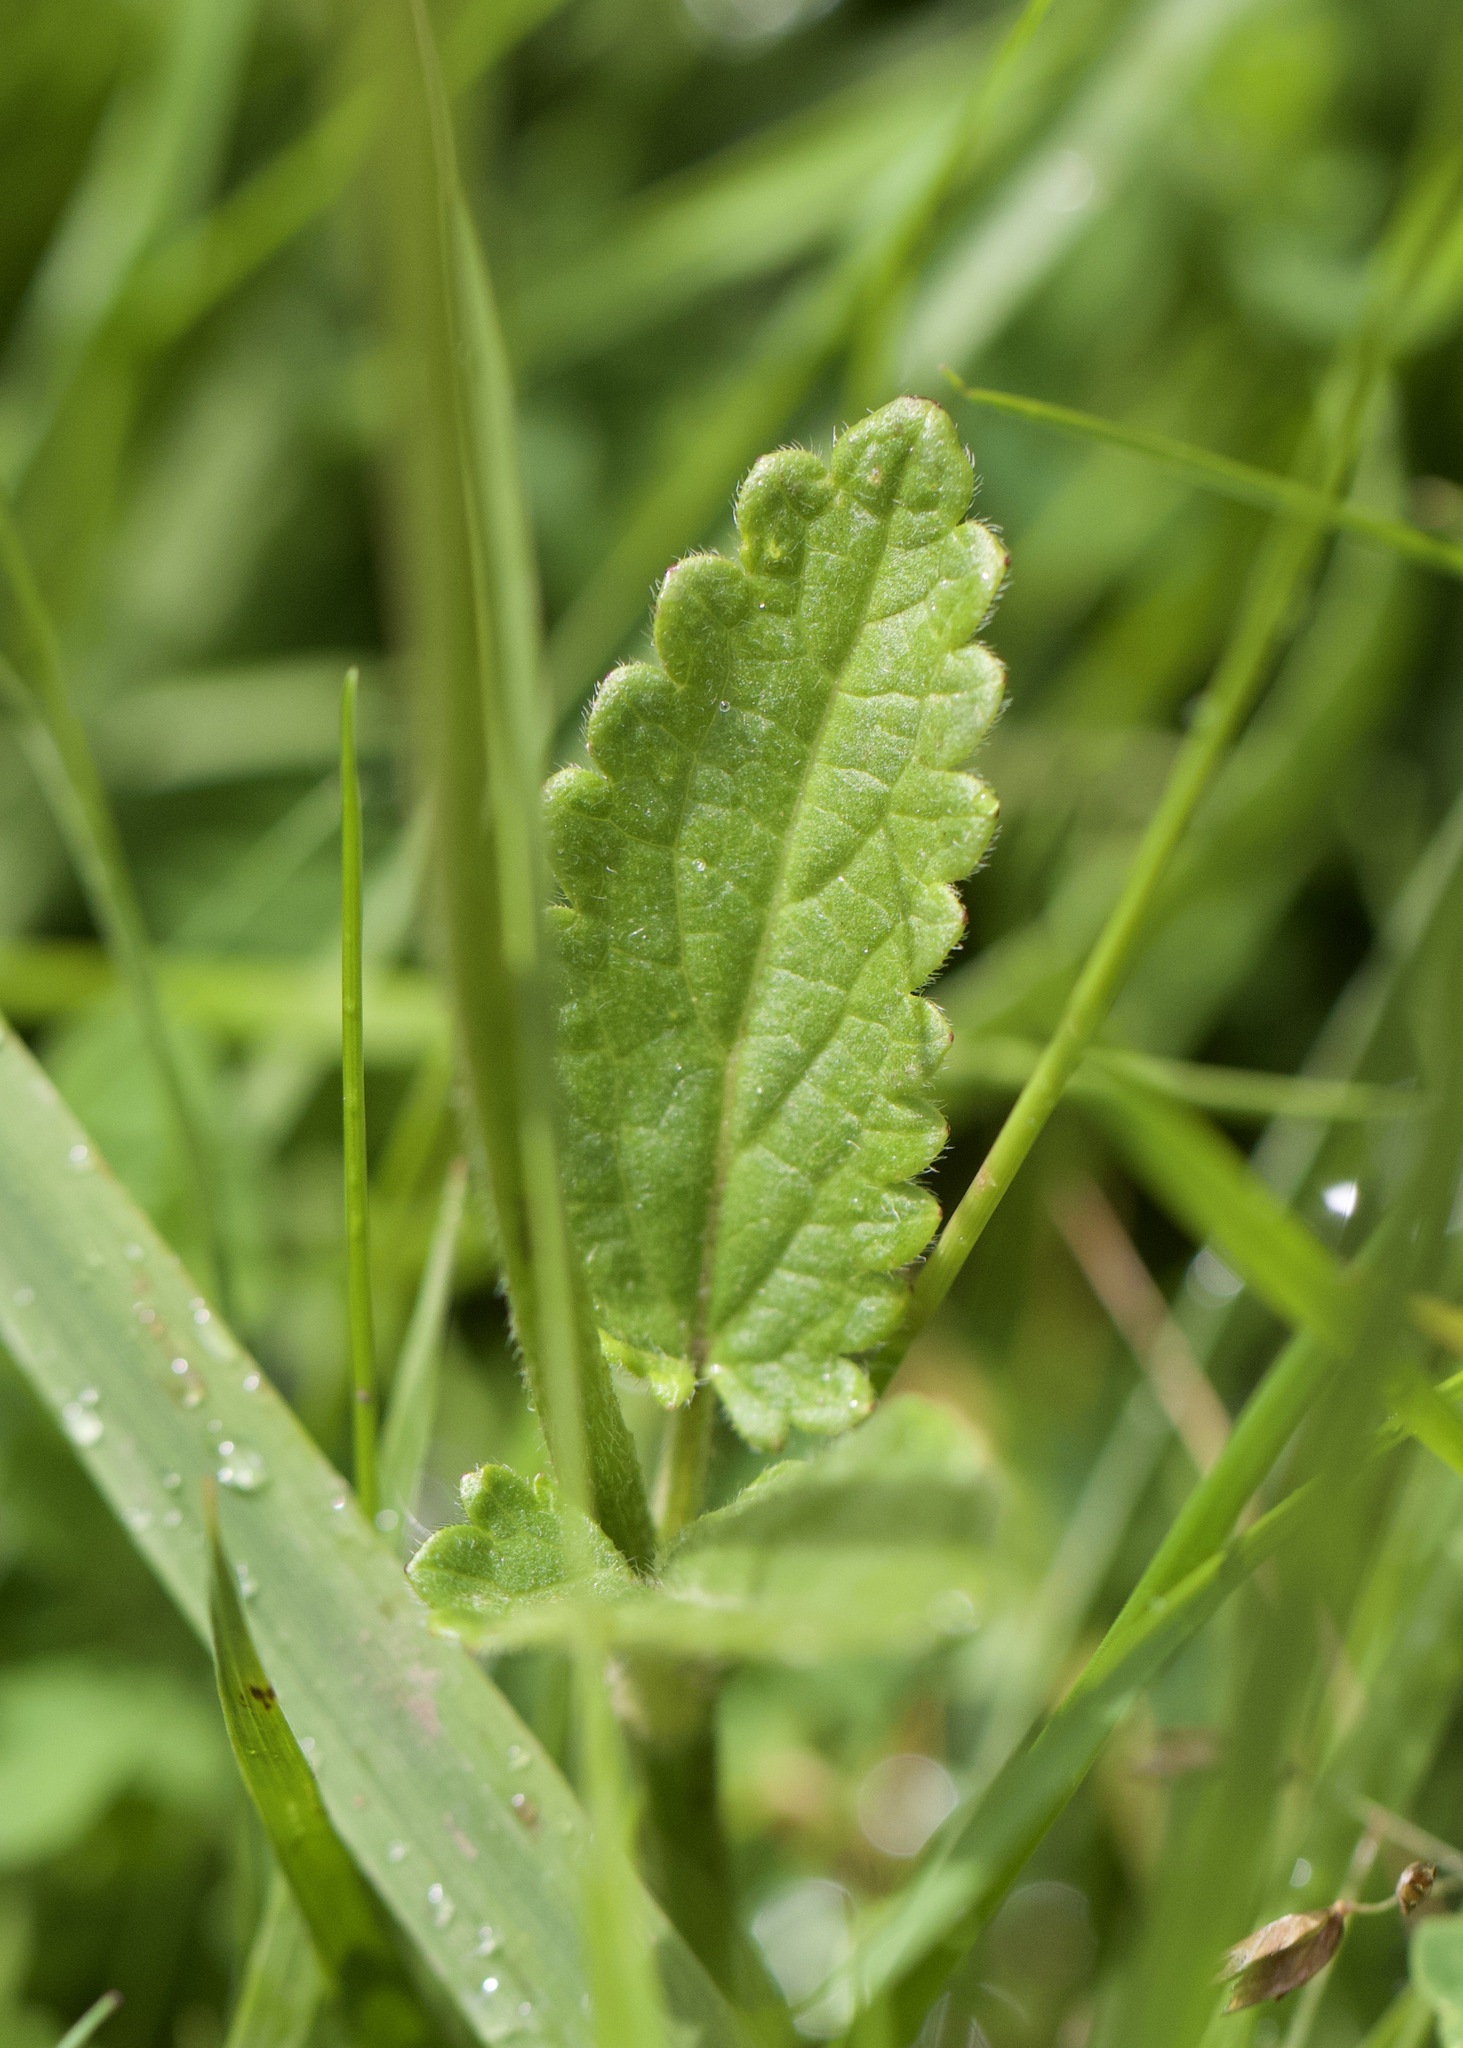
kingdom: Plantae
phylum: Tracheophyta
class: Magnoliopsida
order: Lamiales
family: Lamiaceae
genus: Betonica
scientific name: Betonica officinalis
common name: Bishop's-wort
